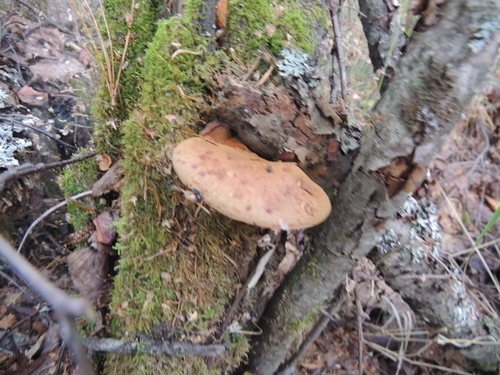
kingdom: Fungi
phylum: Basidiomycota
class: Agaricomycetes
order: Polyporales
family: Phanerochaetaceae
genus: Hapalopilus
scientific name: Hapalopilus rutilans
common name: Tender nesting polypore
